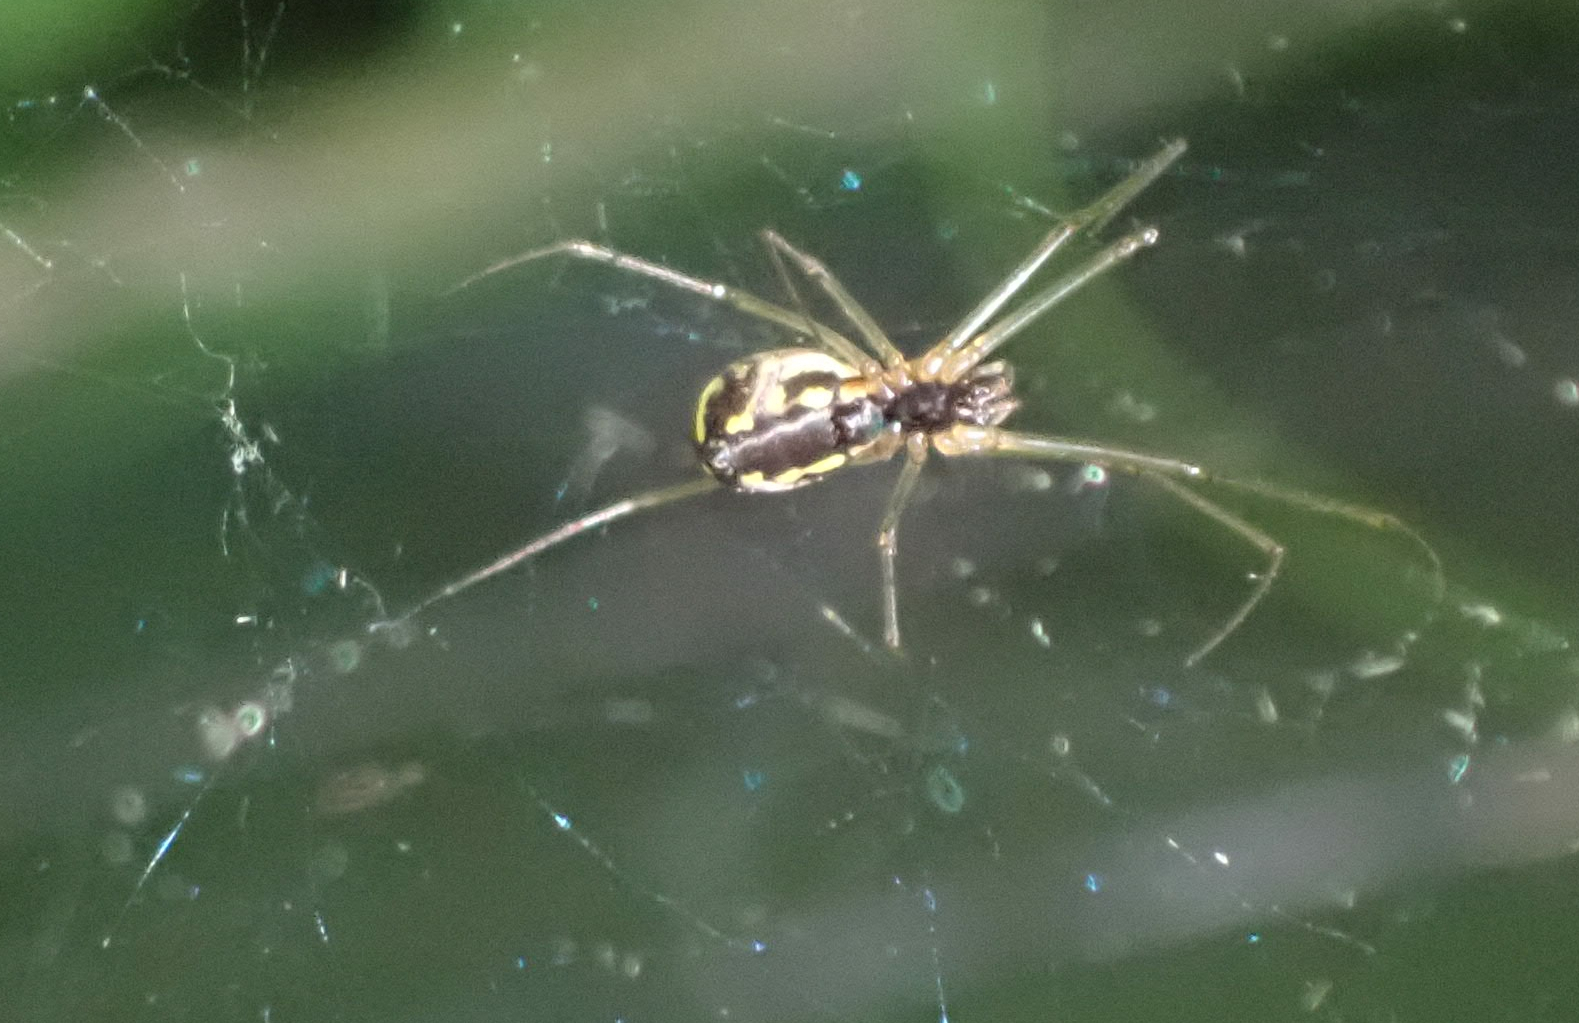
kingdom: Animalia
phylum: Arthropoda
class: Arachnida
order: Araneae
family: Linyphiidae
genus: Neriene
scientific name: Neriene radiata
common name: Filmy dome spider
